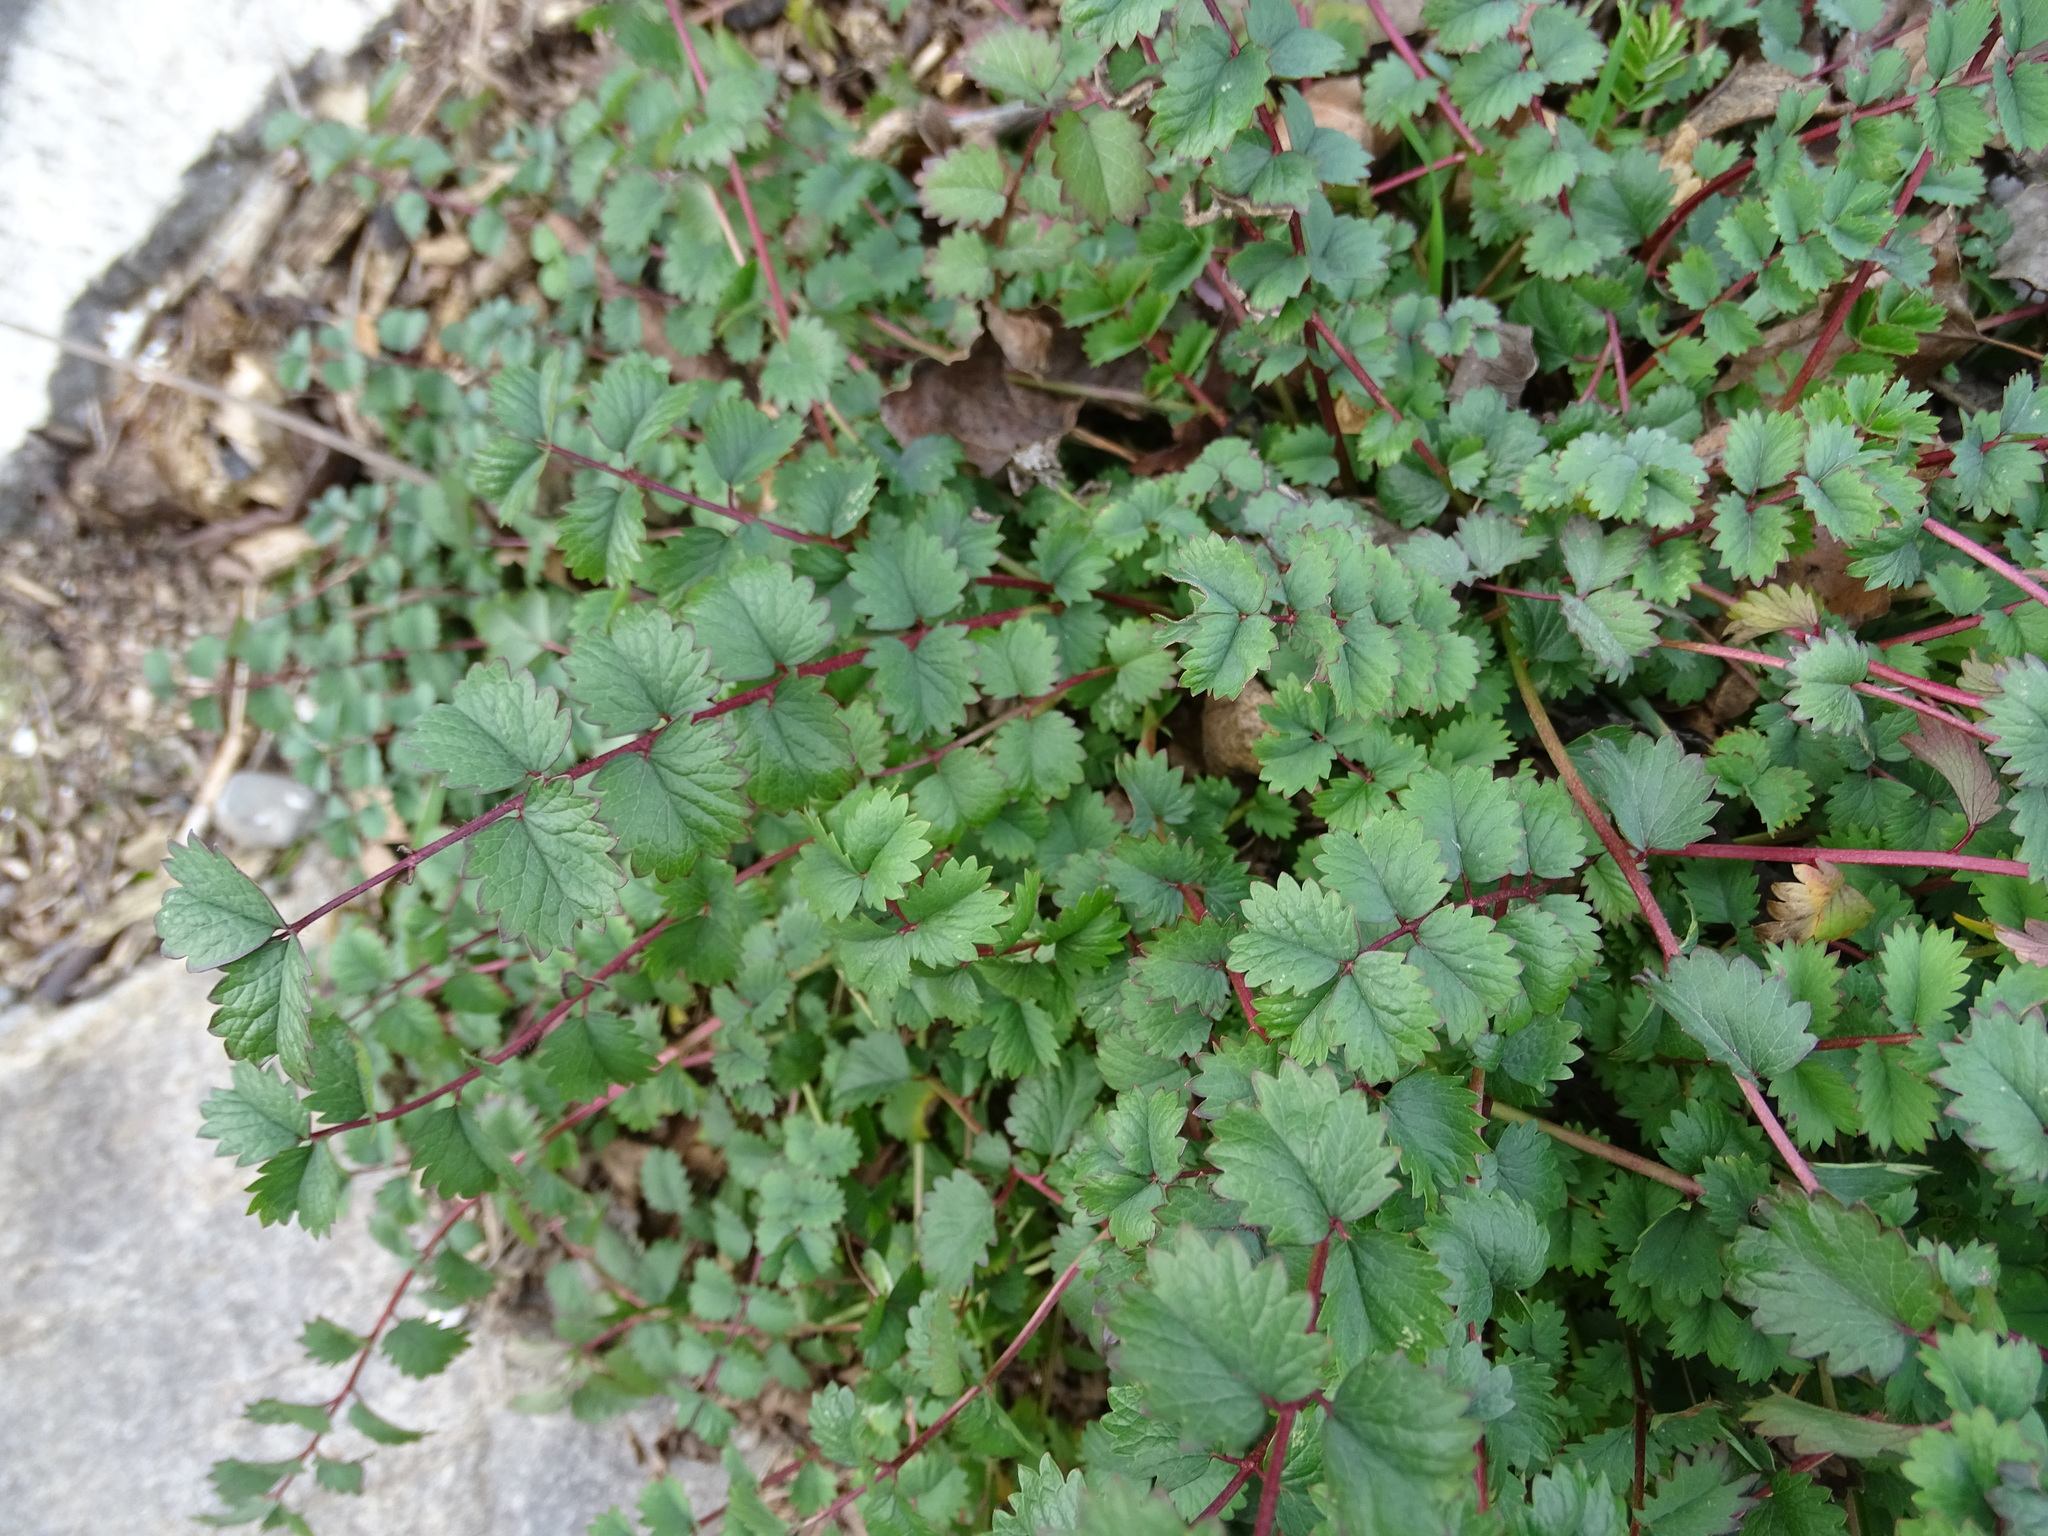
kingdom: Plantae
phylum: Tracheophyta
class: Magnoliopsida
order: Rosales
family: Rosaceae
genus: Poterium
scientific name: Poterium sanguisorba
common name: Salad burnet
